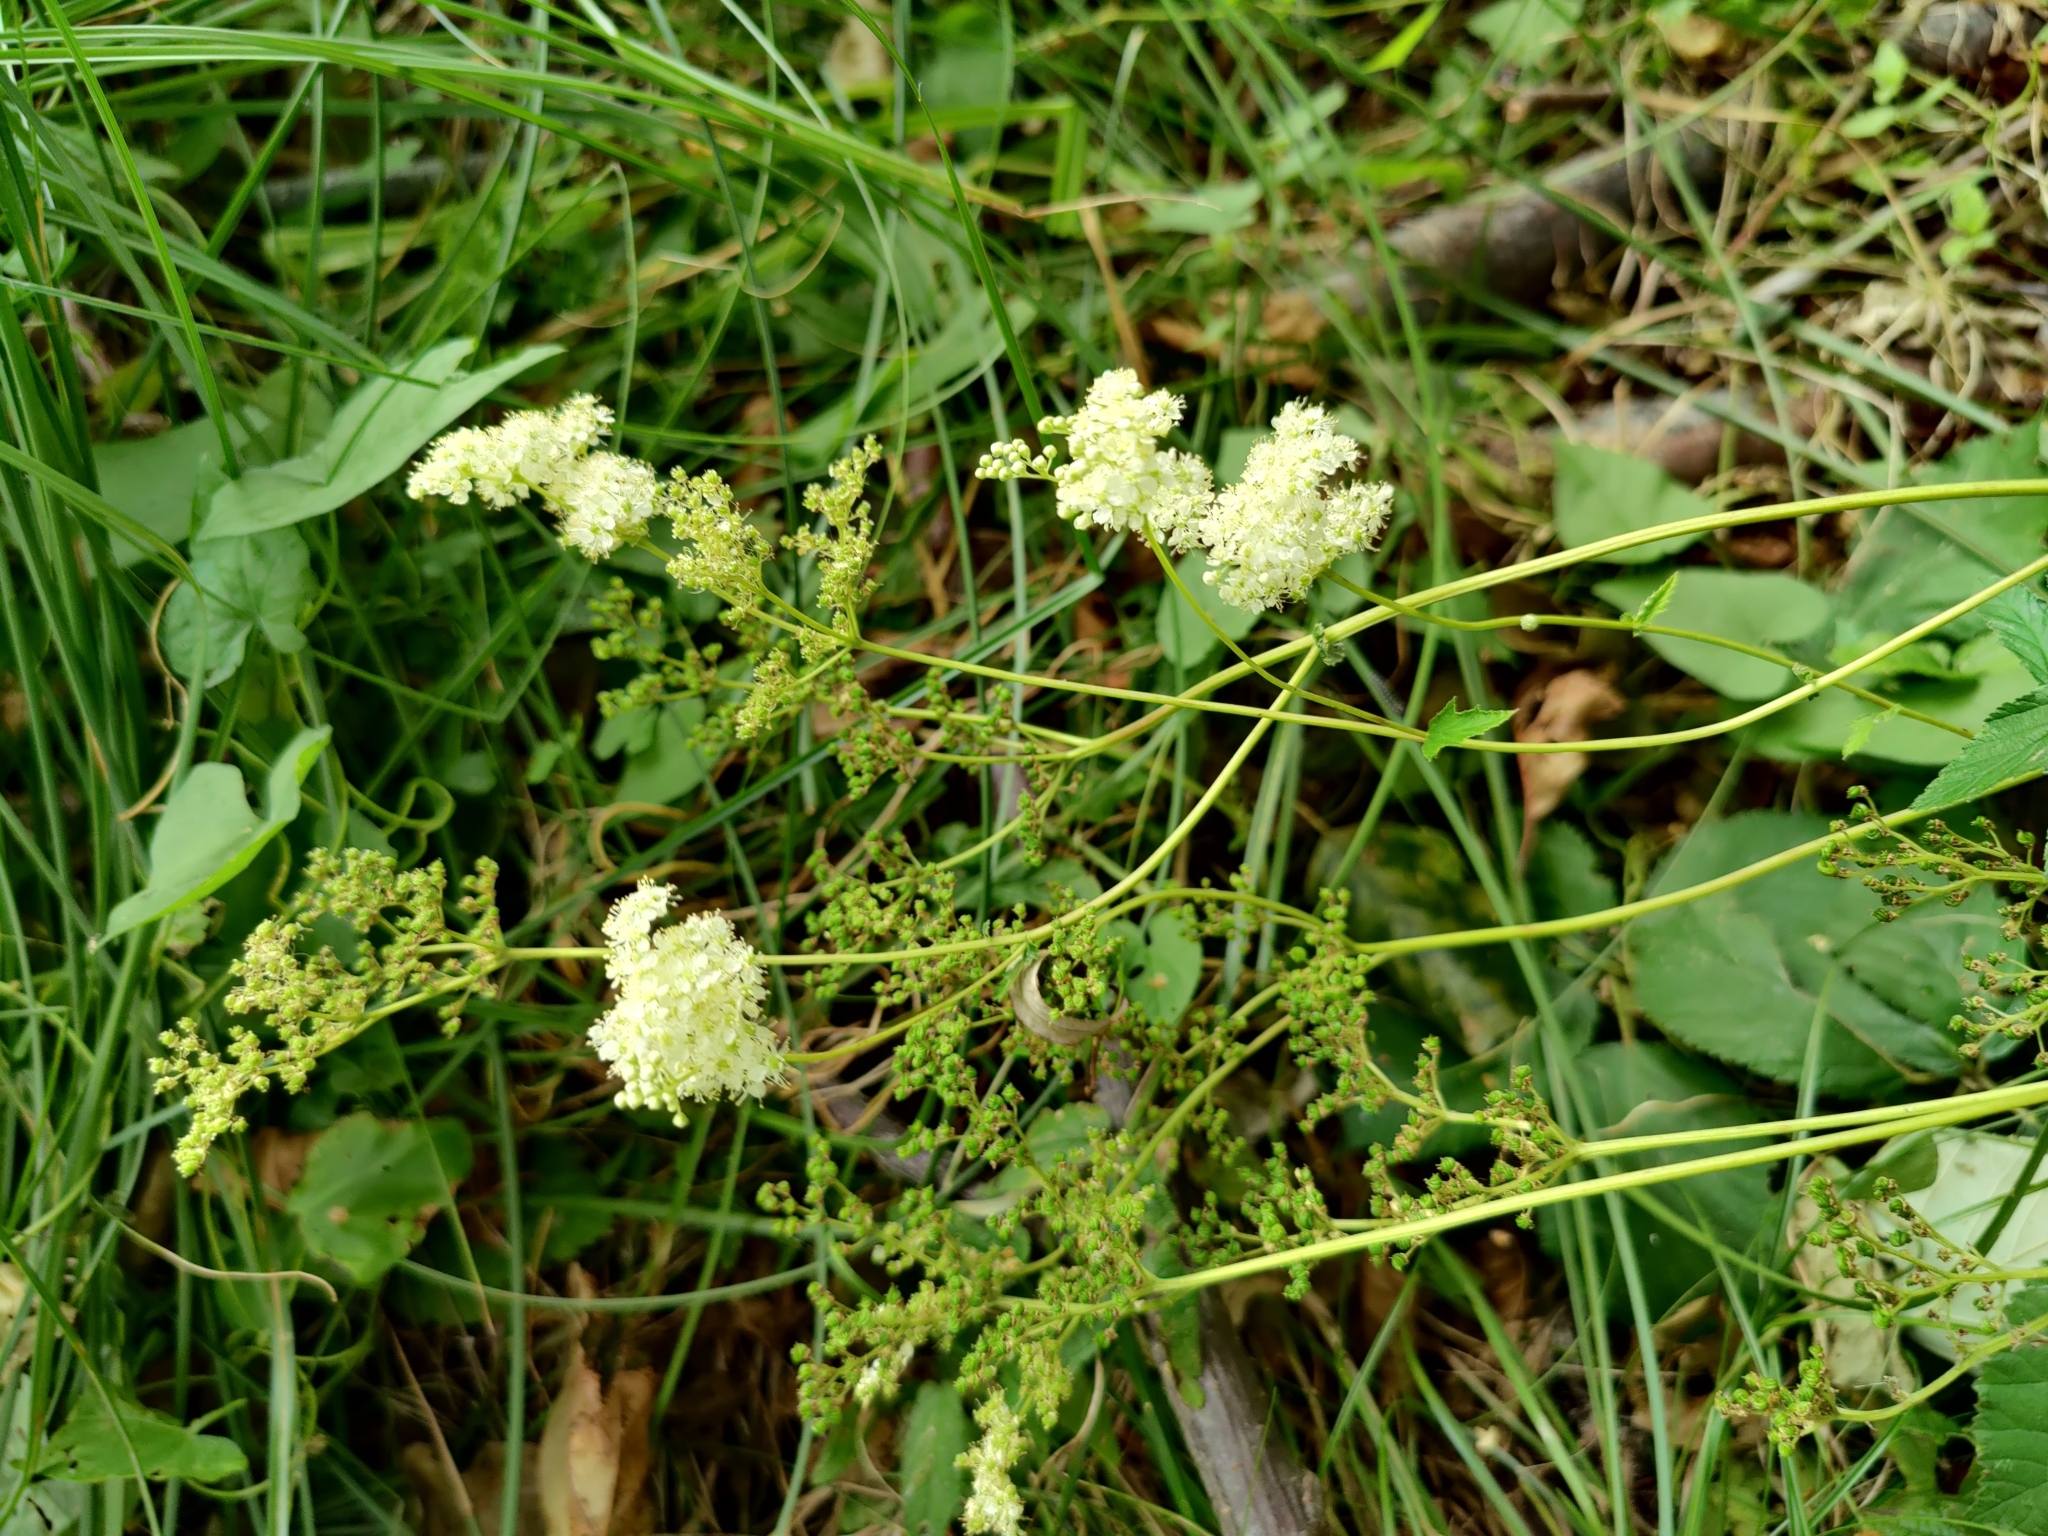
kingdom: Plantae
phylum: Tracheophyta
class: Magnoliopsida
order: Rosales
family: Rosaceae
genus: Filipendula
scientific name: Filipendula ulmaria
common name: Meadowsweet
